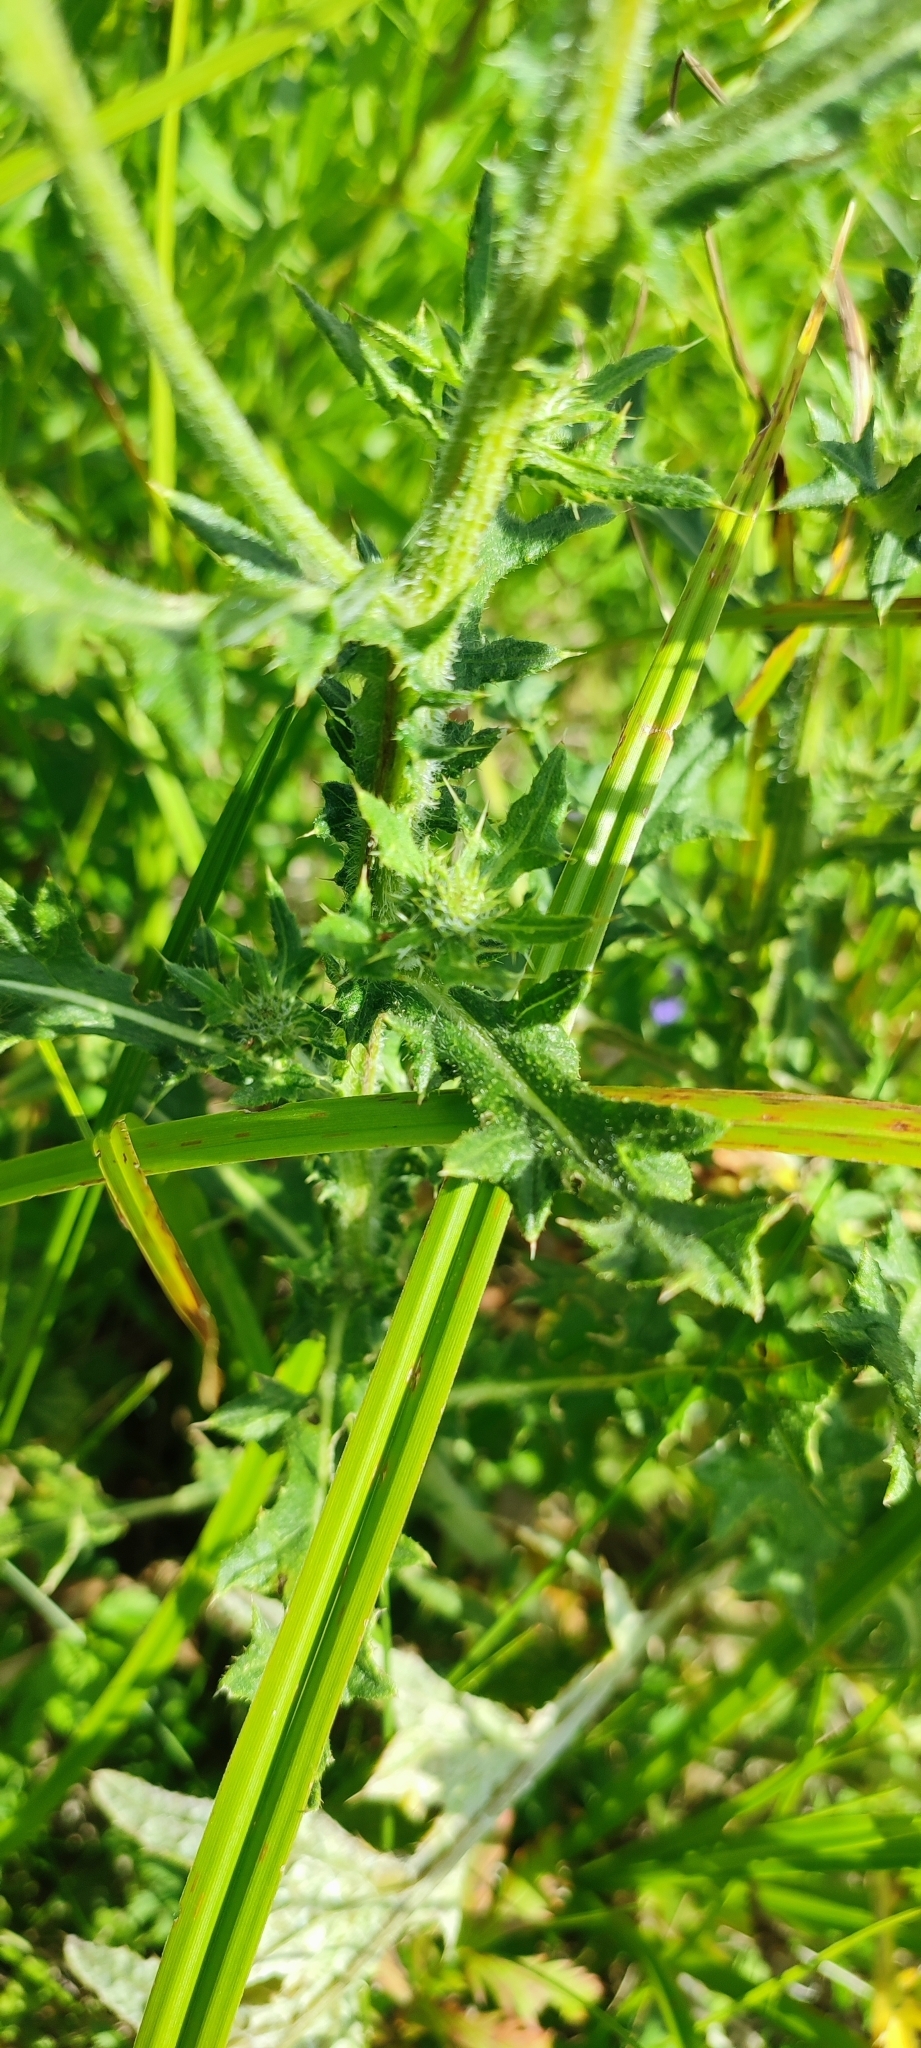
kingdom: Plantae
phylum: Tracheophyta
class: Magnoliopsida
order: Asterales
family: Asteraceae
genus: Cirsium
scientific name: Cirsium vulgare
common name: Bull thistle
